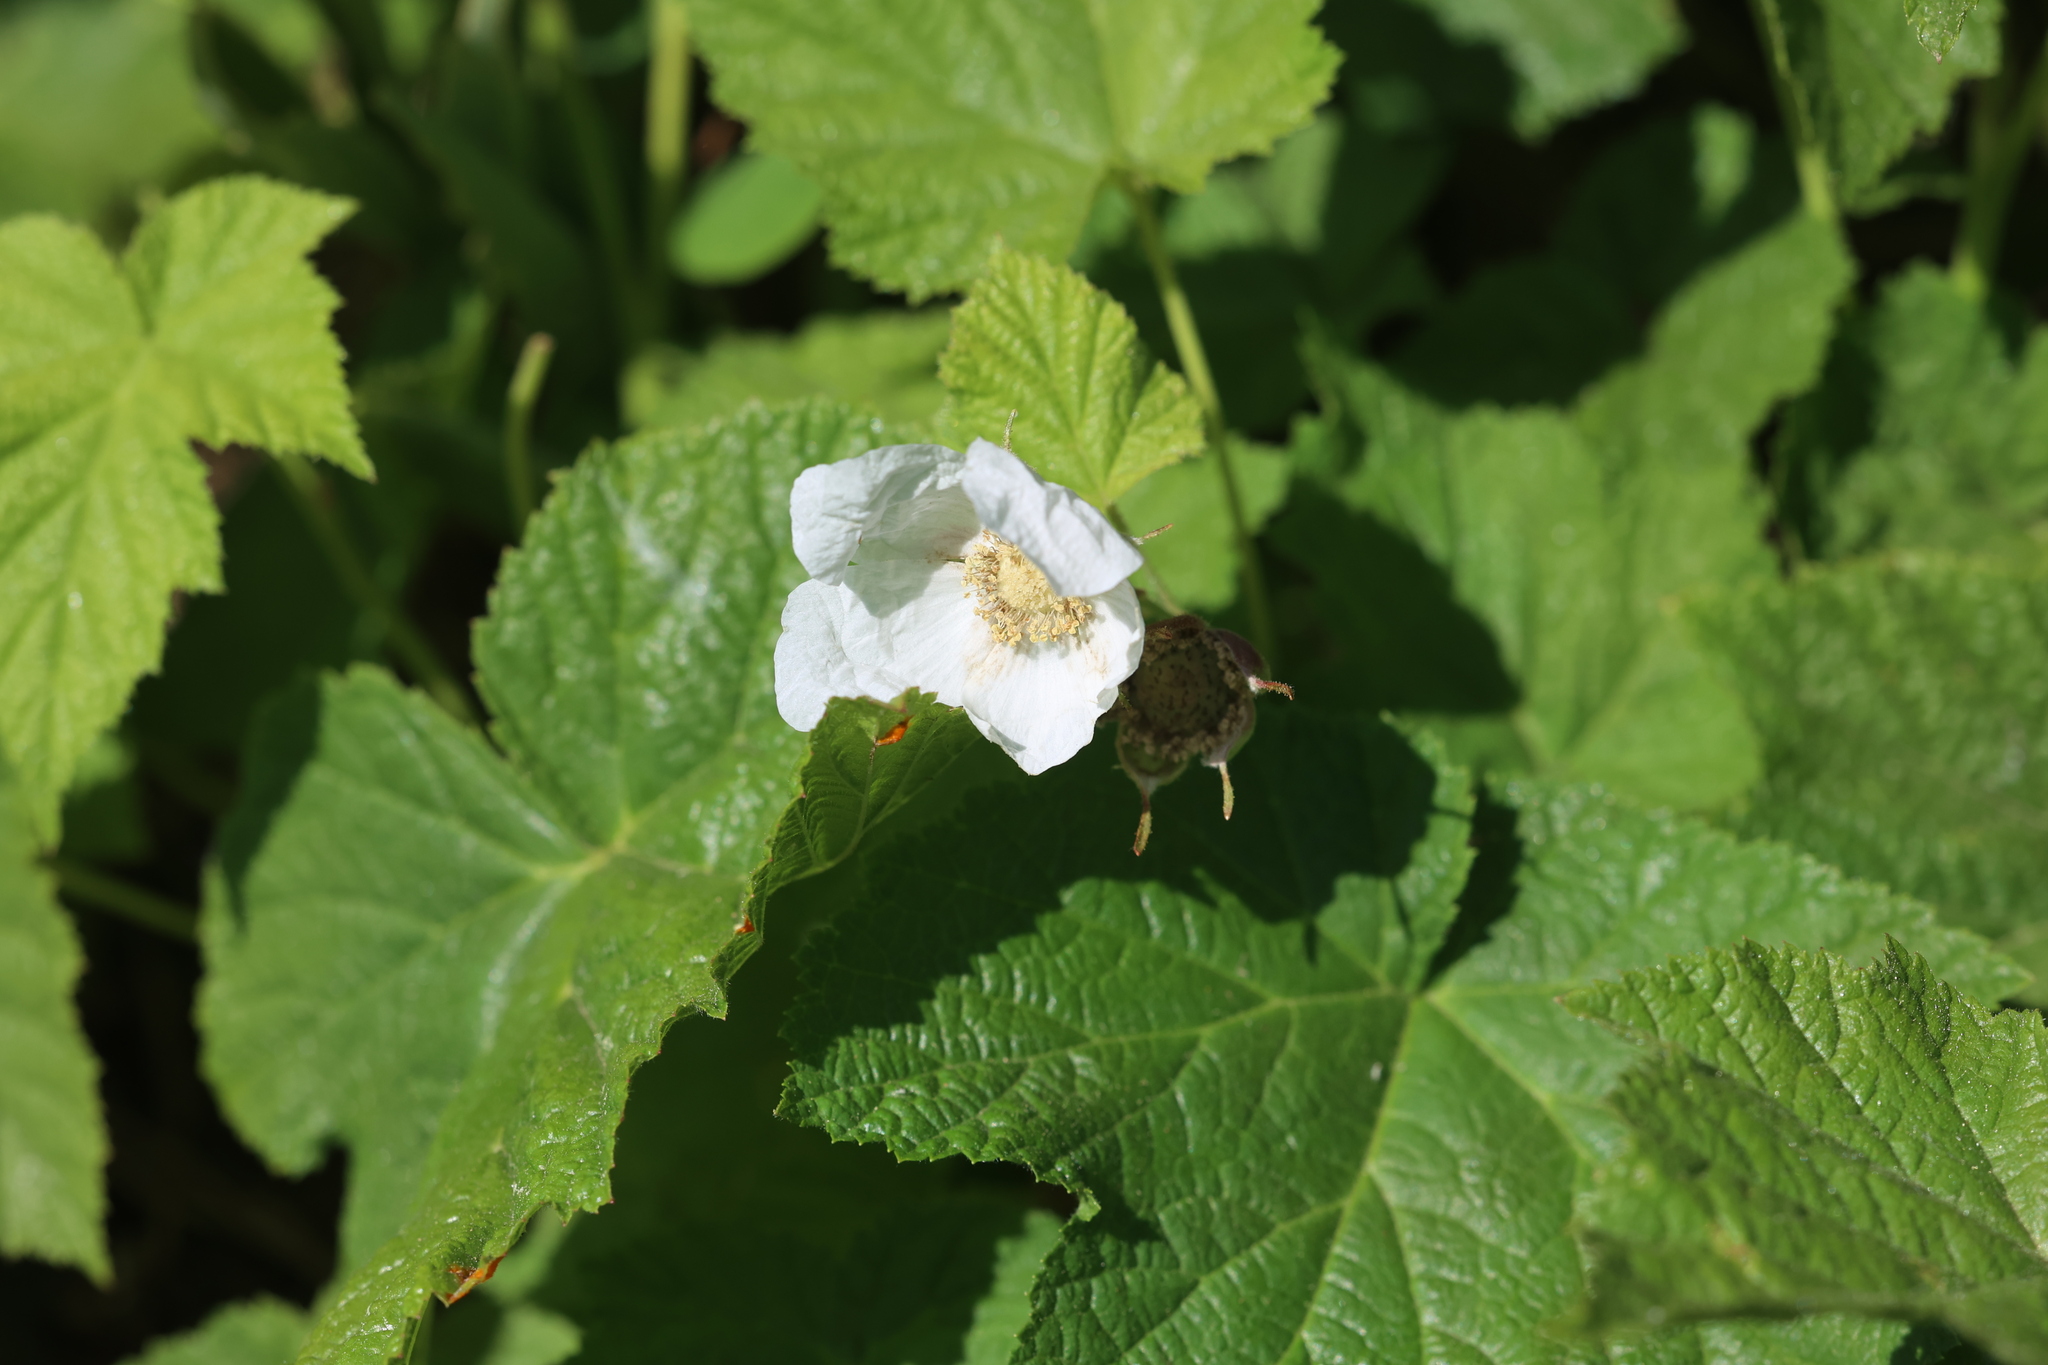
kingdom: Plantae
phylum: Tracheophyta
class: Magnoliopsida
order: Rosales
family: Rosaceae
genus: Rubus
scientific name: Rubus parviflorus
